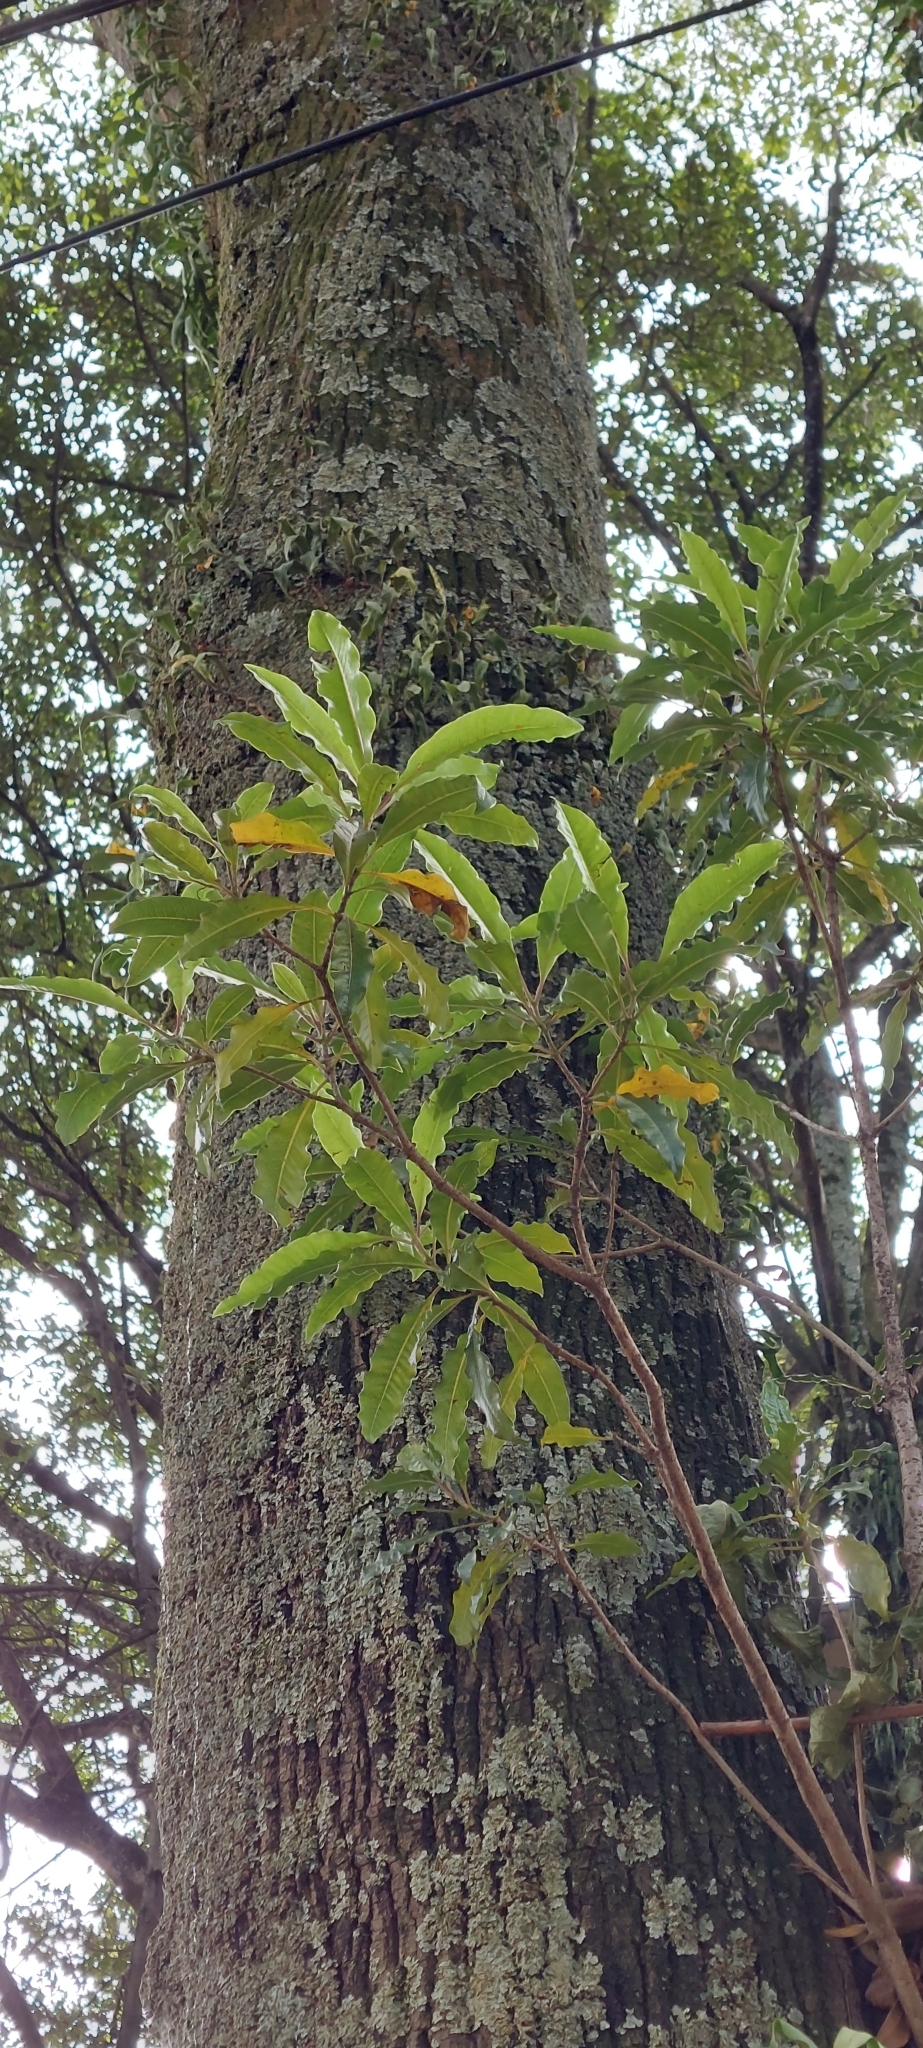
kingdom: Plantae
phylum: Tracheophyta
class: Magnoliopsida
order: Apiales
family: Pittosporaceae
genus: Pittosporum
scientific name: Pittosporum undulatum
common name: Australian cheesewood
